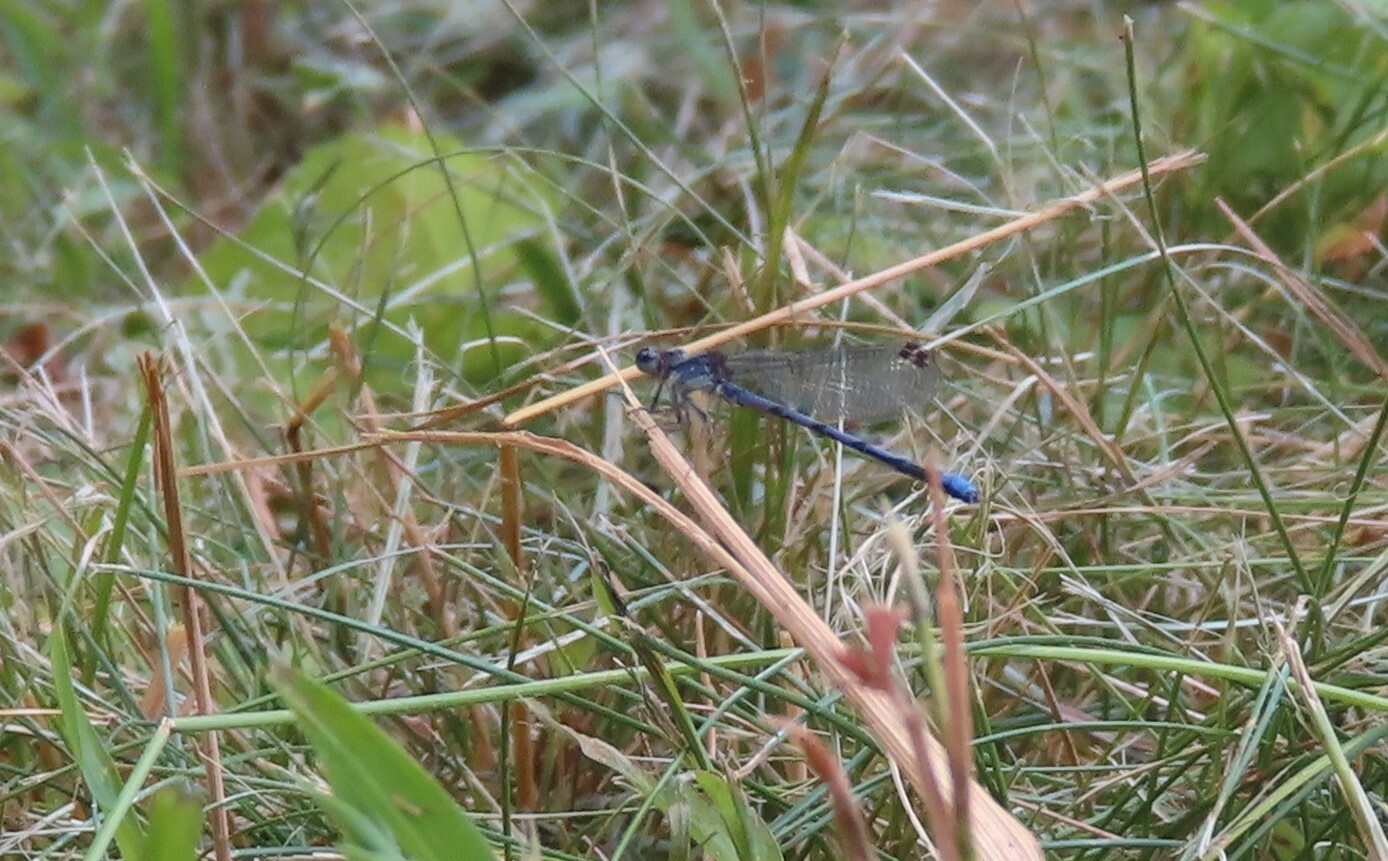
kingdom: Animalia
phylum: Arthropoda
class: Insecta
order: Odonata
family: Coenagrionidae
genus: Argia
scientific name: Argia fumipennis
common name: Variable dancer
